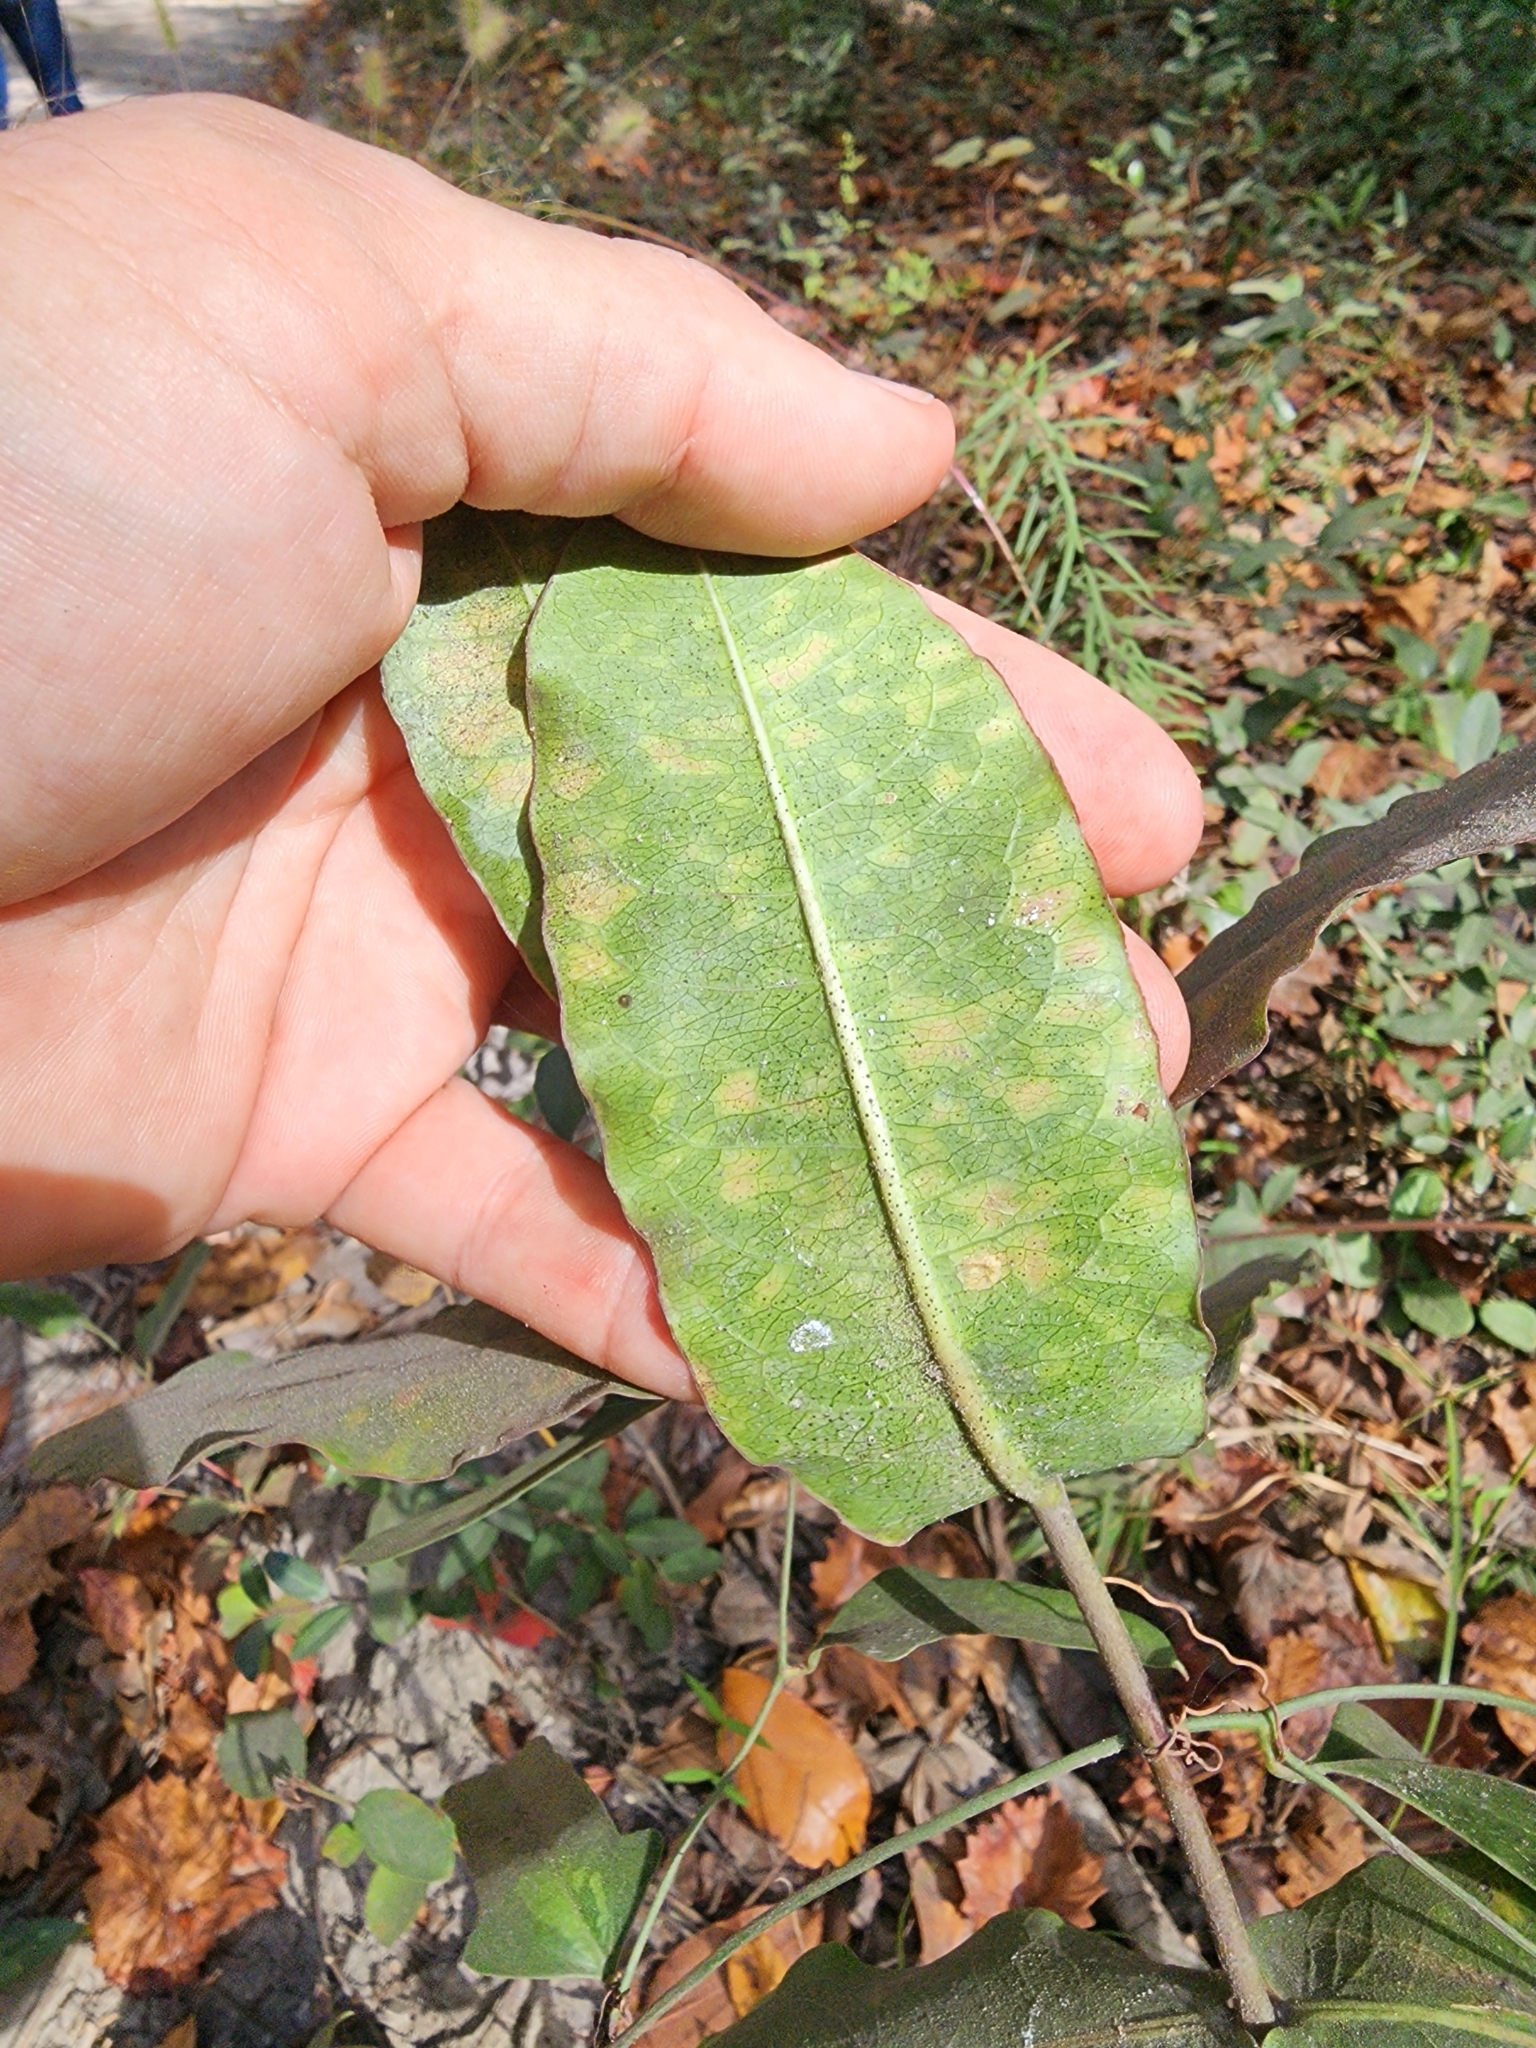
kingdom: Plantae
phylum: Tracheophyta
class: Magnoliopsida
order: Gentianales
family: Apocynaceae
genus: Asclepias
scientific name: Asclepias amplexicaulis
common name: Blunt-leaf milkweed
